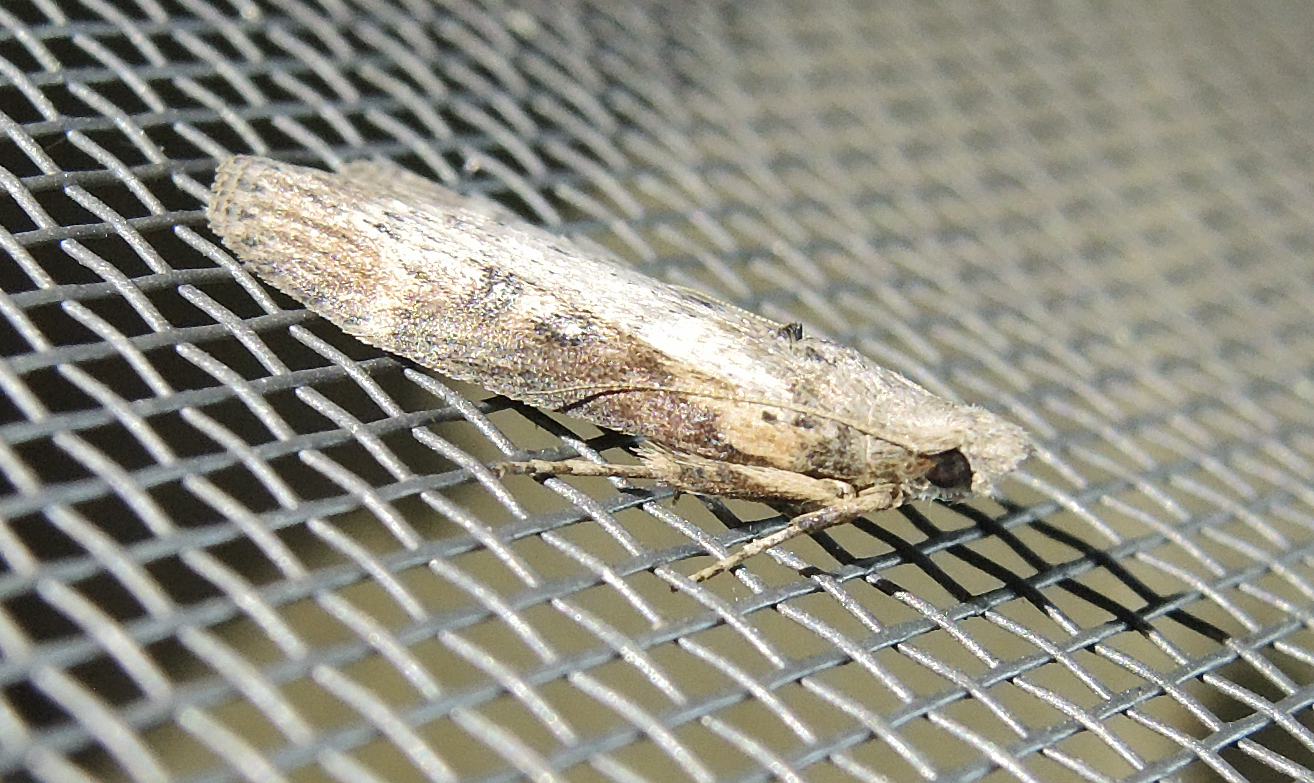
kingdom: Animalia
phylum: Arthropoda
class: Insecta
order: Lepidoptera
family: Pyralidae
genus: Lamoria
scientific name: Lamoria anella
